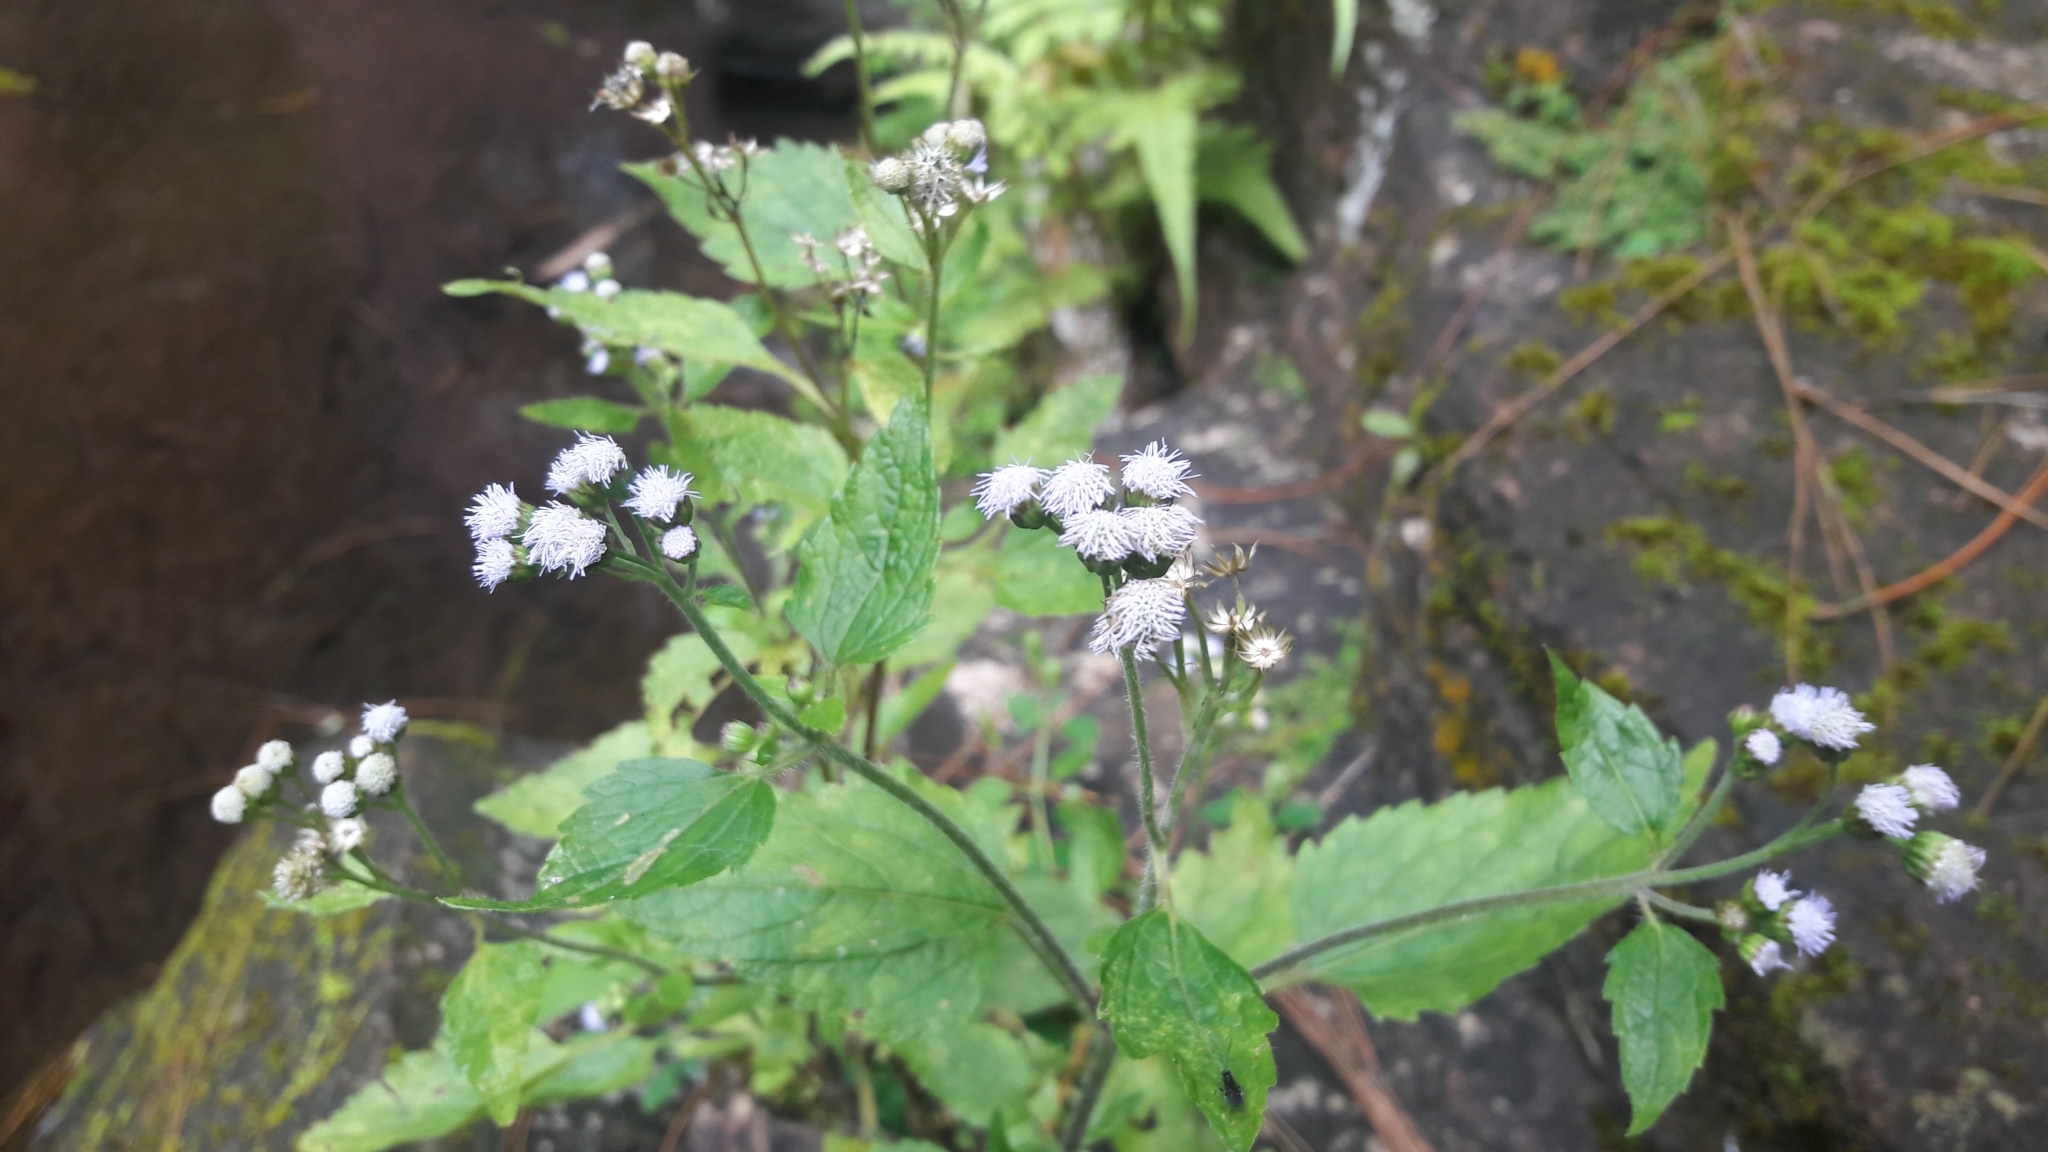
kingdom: Plantae
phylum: Tracheophyta
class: Magnoliopsida
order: Asterales
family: Asteraceae
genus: Ageratum
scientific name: Ageratum conyzoides
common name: Tropical whiteweed
